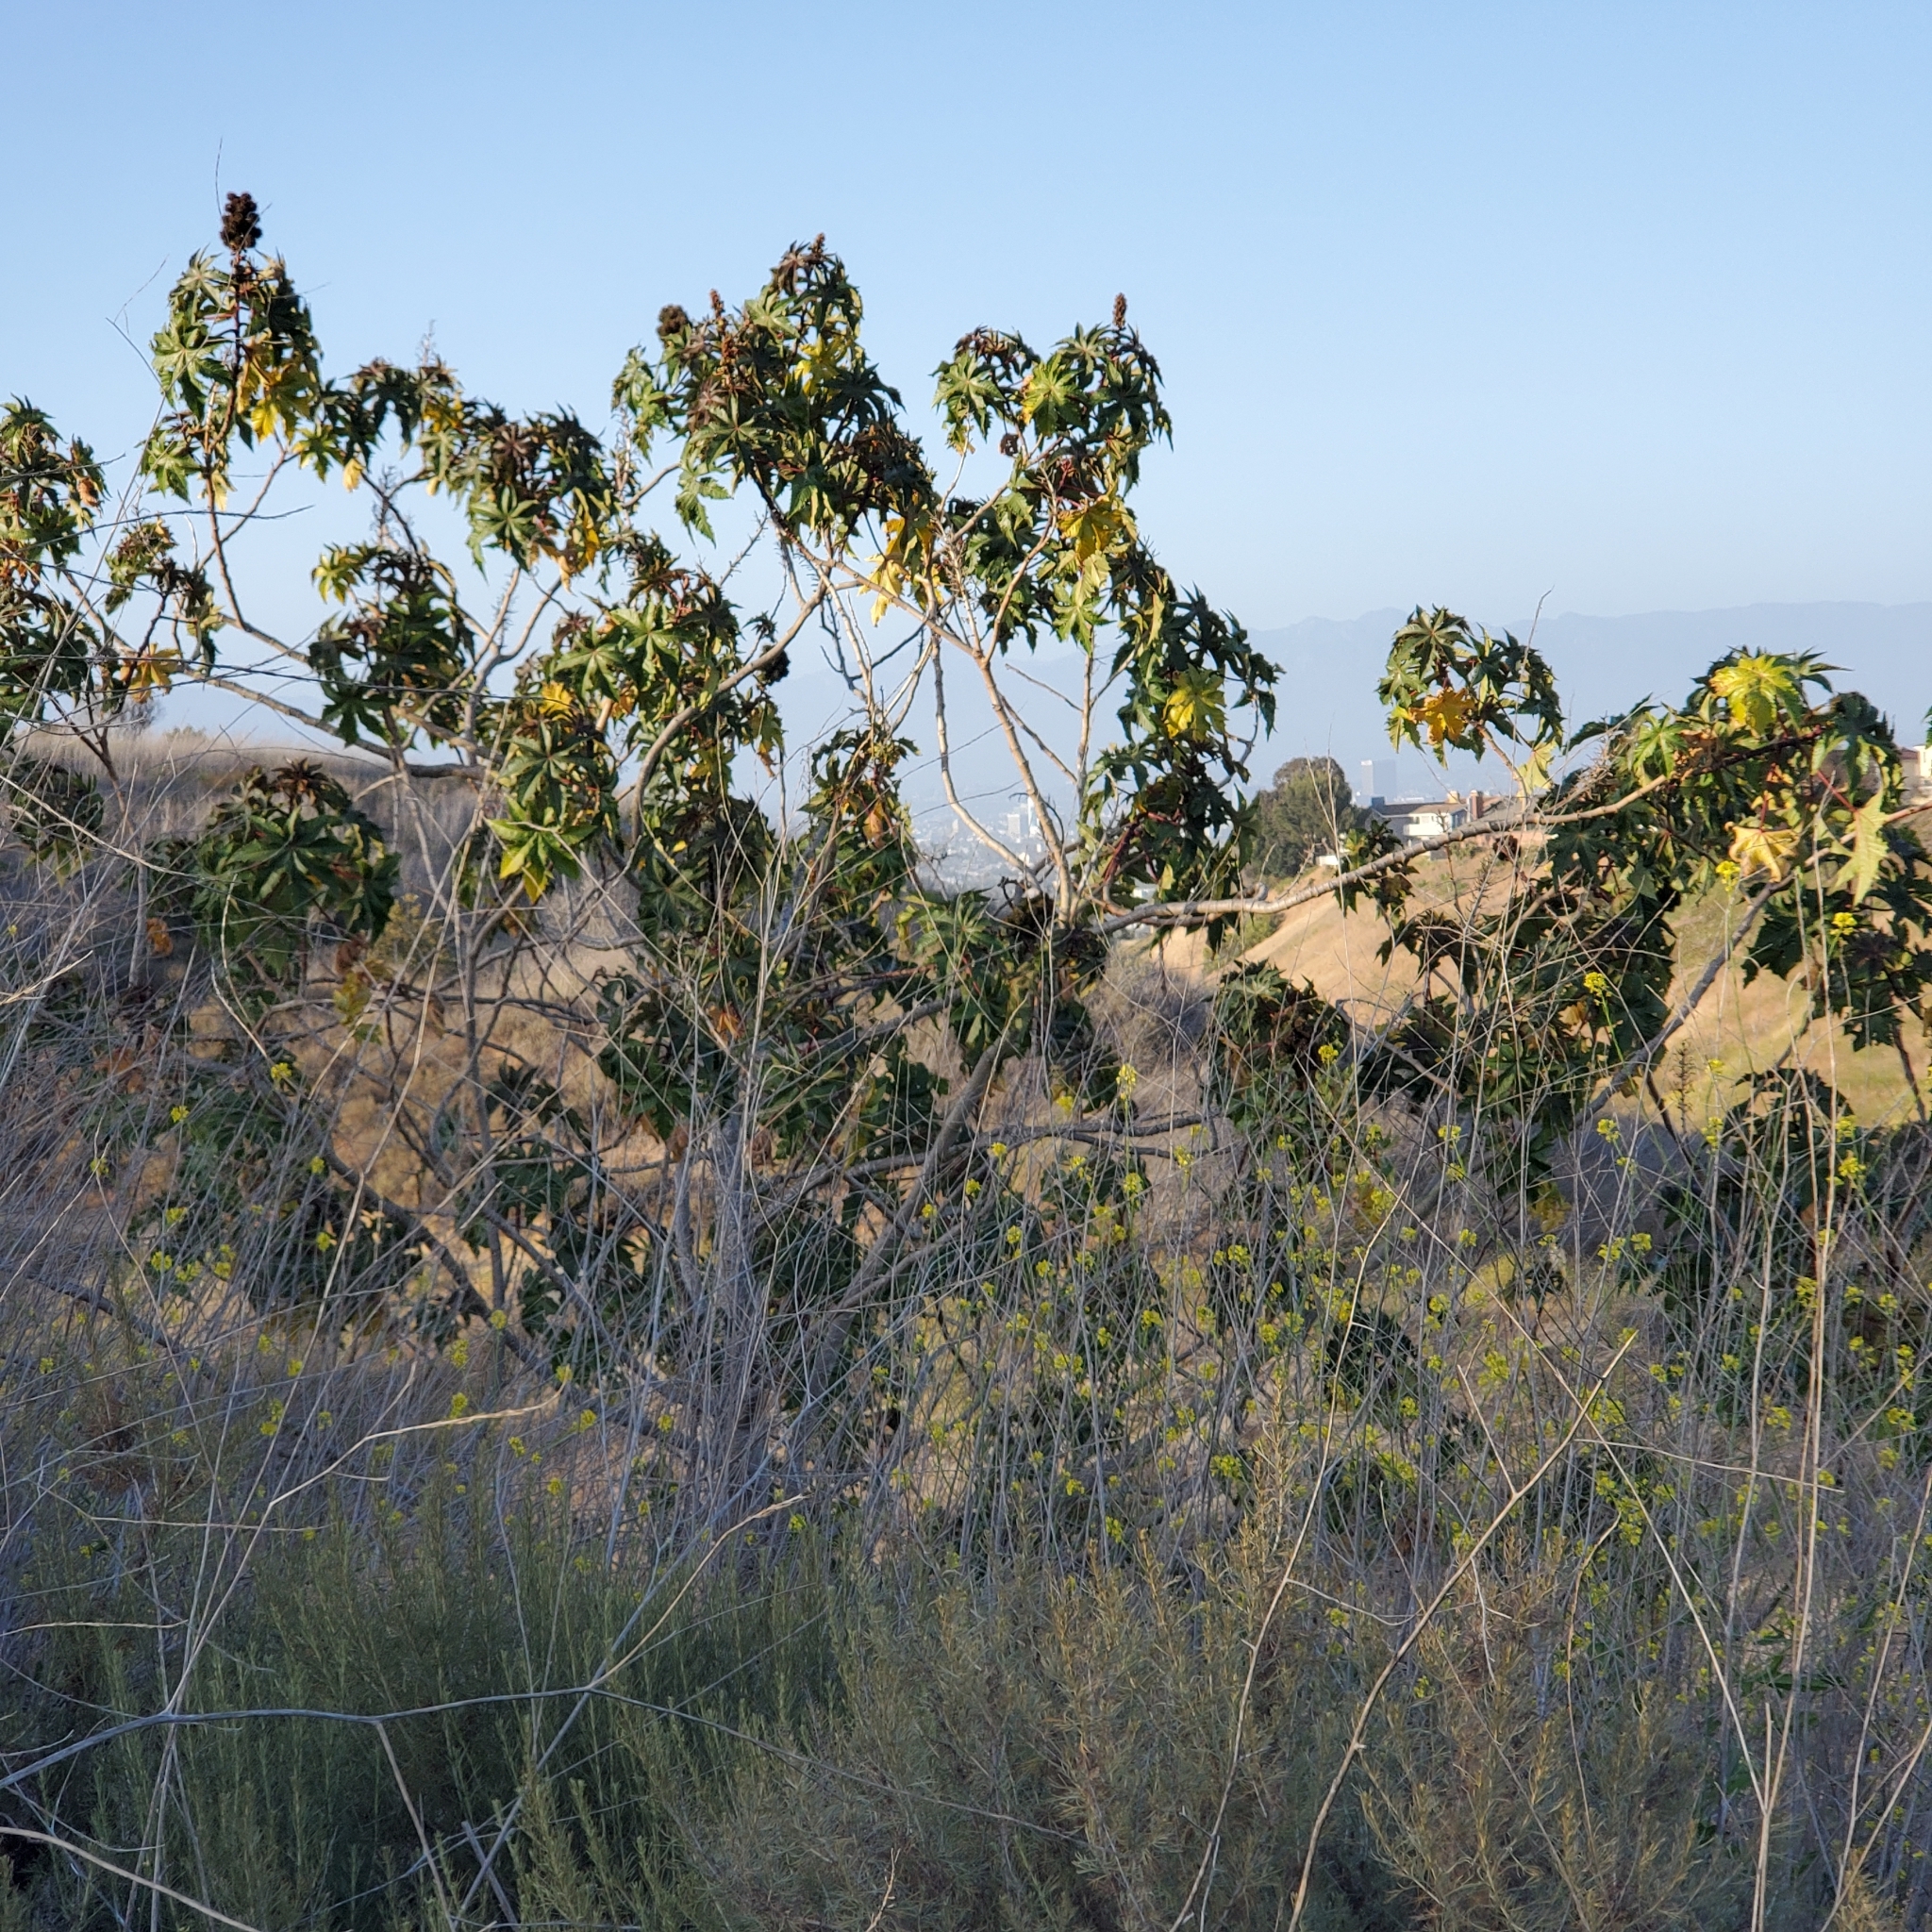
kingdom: Plantae
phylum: Tracheophyta
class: Magnoliopsida
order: Malpighiales
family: Euphorbiaceae
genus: Ricinus
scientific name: Ricinus communis
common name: Castor-oil-plant
